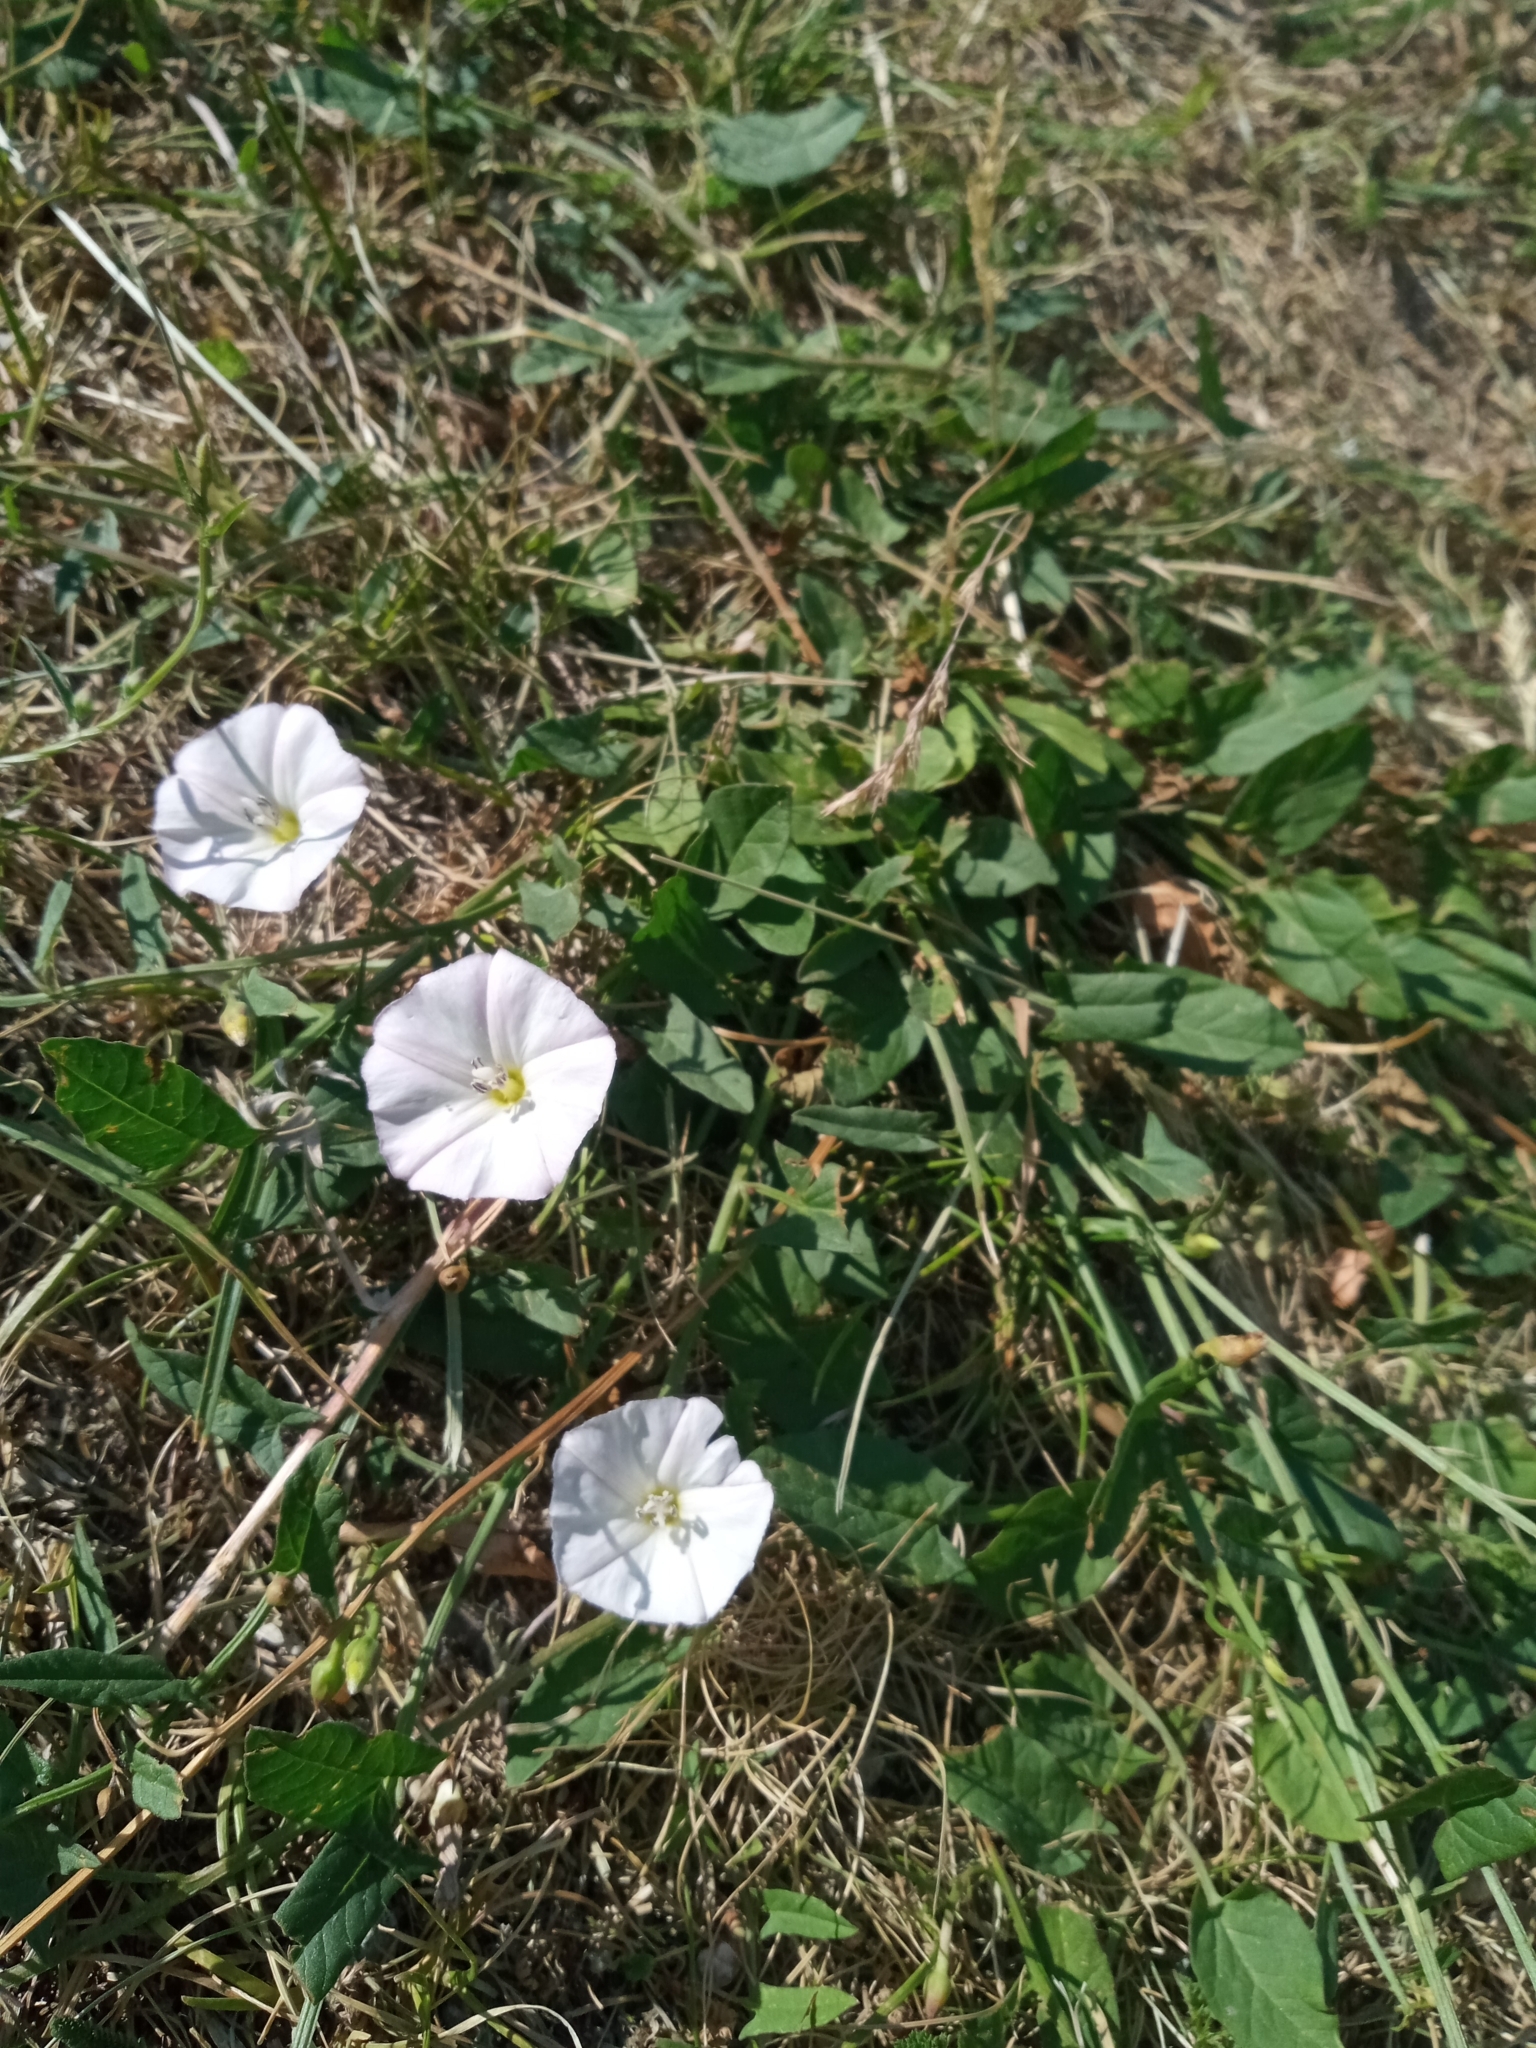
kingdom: Plantae
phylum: Tracheophyta
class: Magnoliopsida
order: Solanales
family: Convolvulaceae
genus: Convolvulus
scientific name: Convolvulus arvensis
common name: Field bindweed
